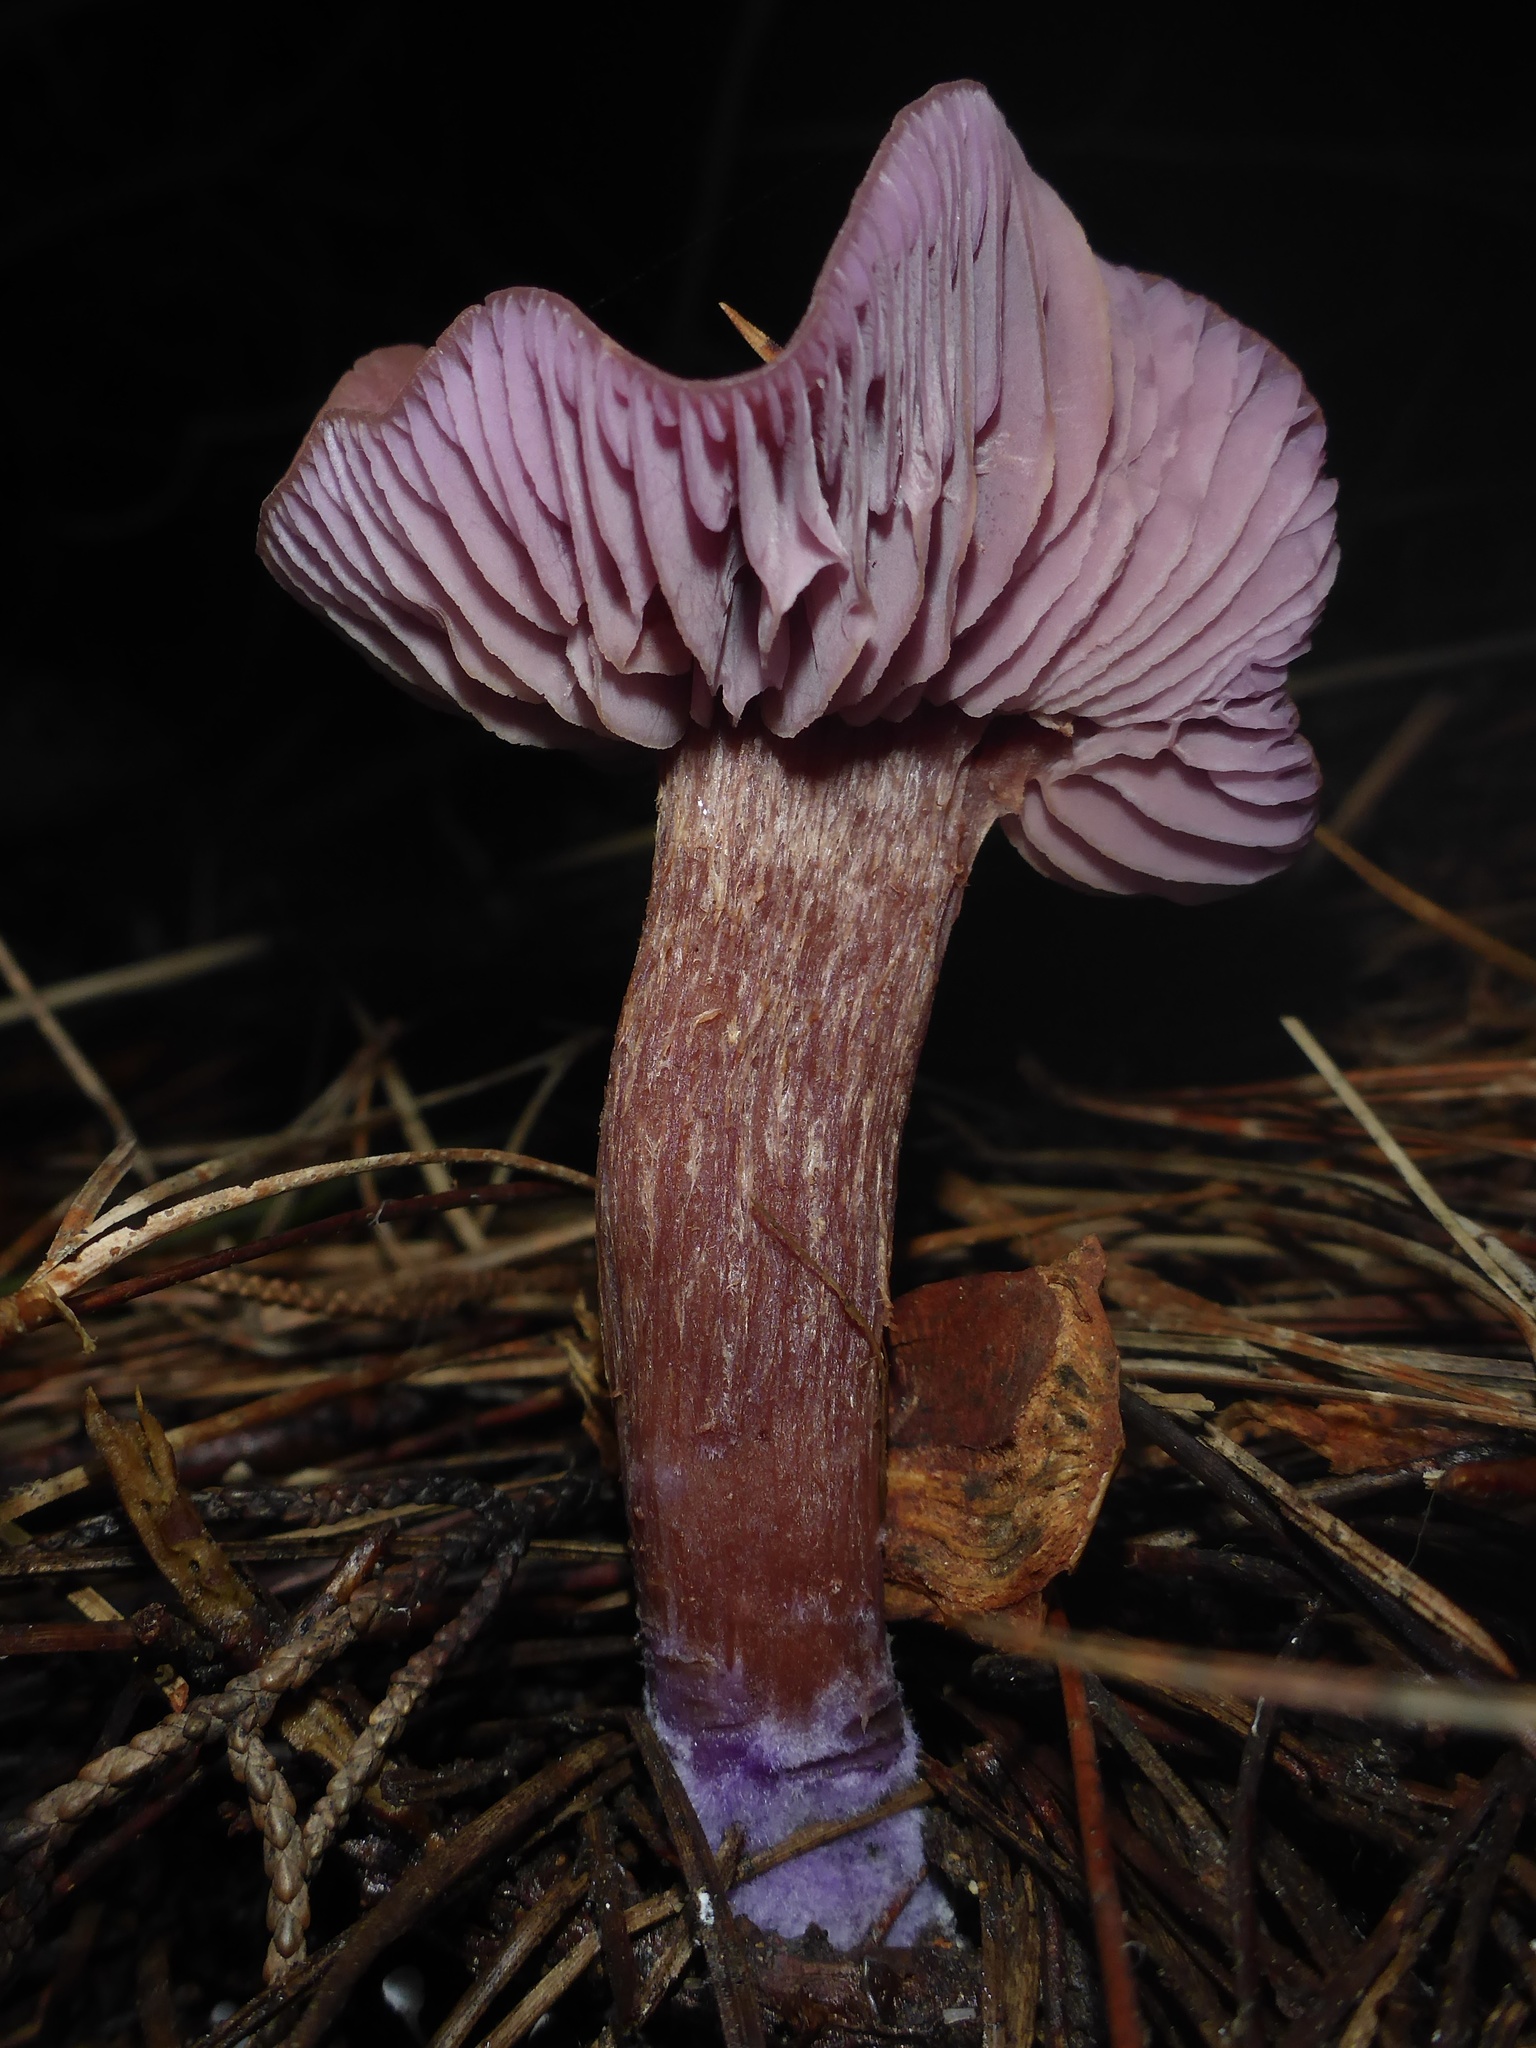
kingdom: Fungi
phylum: Basidiomycota
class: Agaricomycetes
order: Agaricales
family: Hydnangiaceae
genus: Laccaria
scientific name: Laccaria amethysteo-occidentalis
